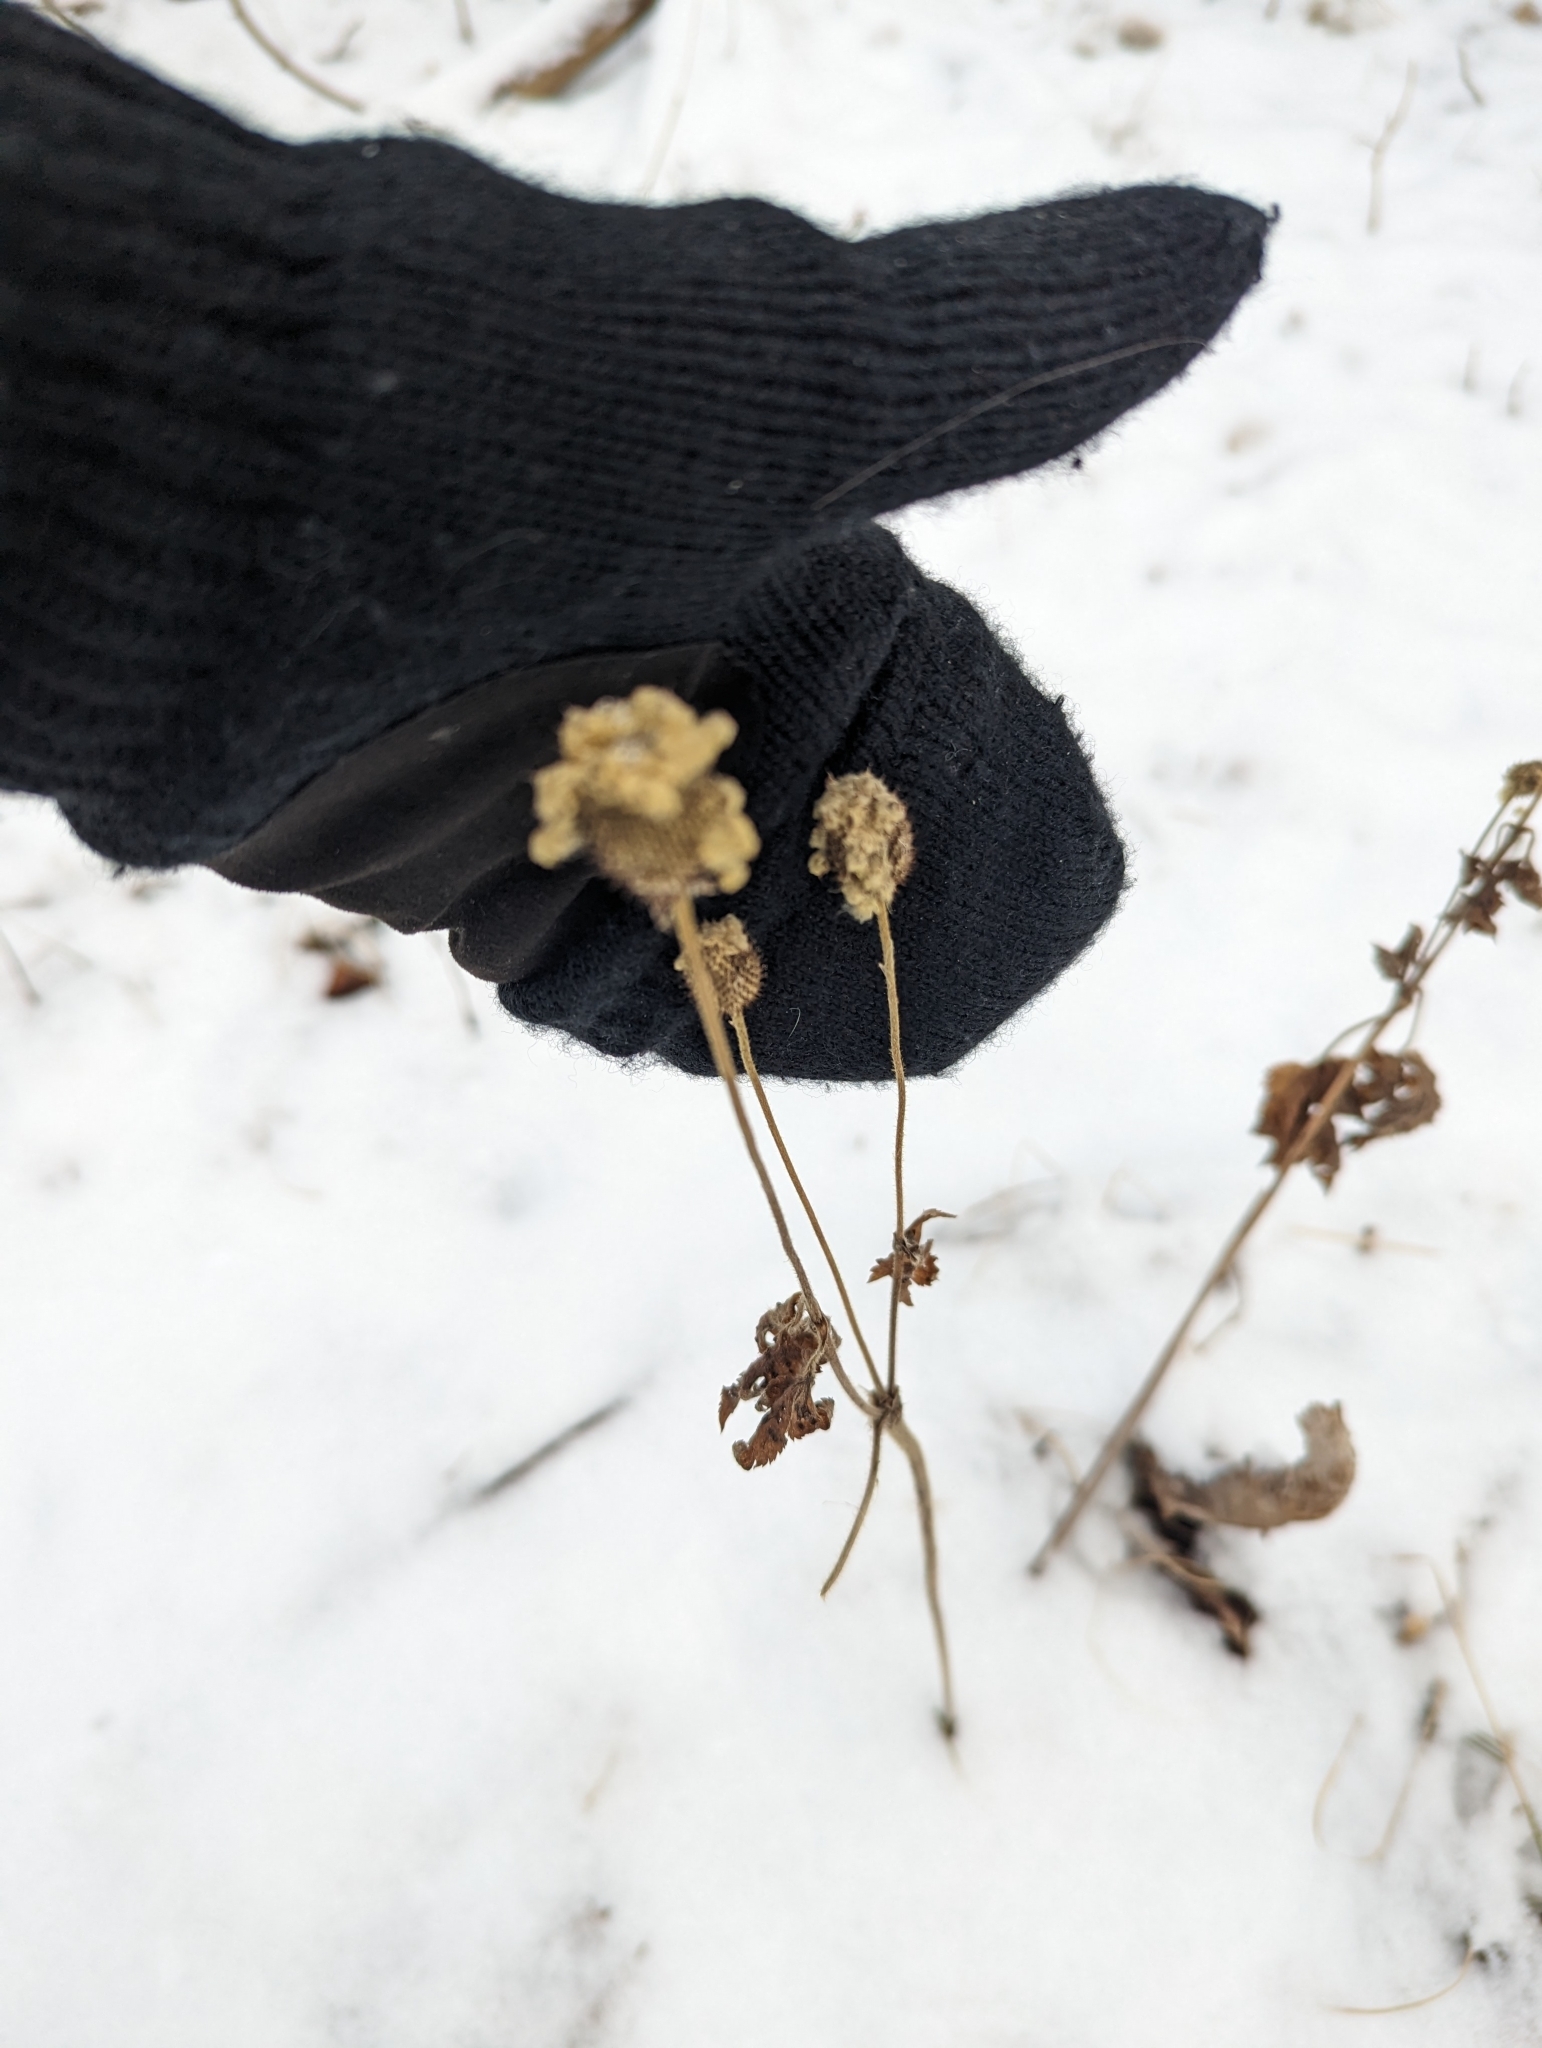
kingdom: Plantae
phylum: Tracheophyta
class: Magnoliopsida
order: Ranunculales
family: Ranunculaceae
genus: Anemone
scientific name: Anemone virginiana
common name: Tall anemone
